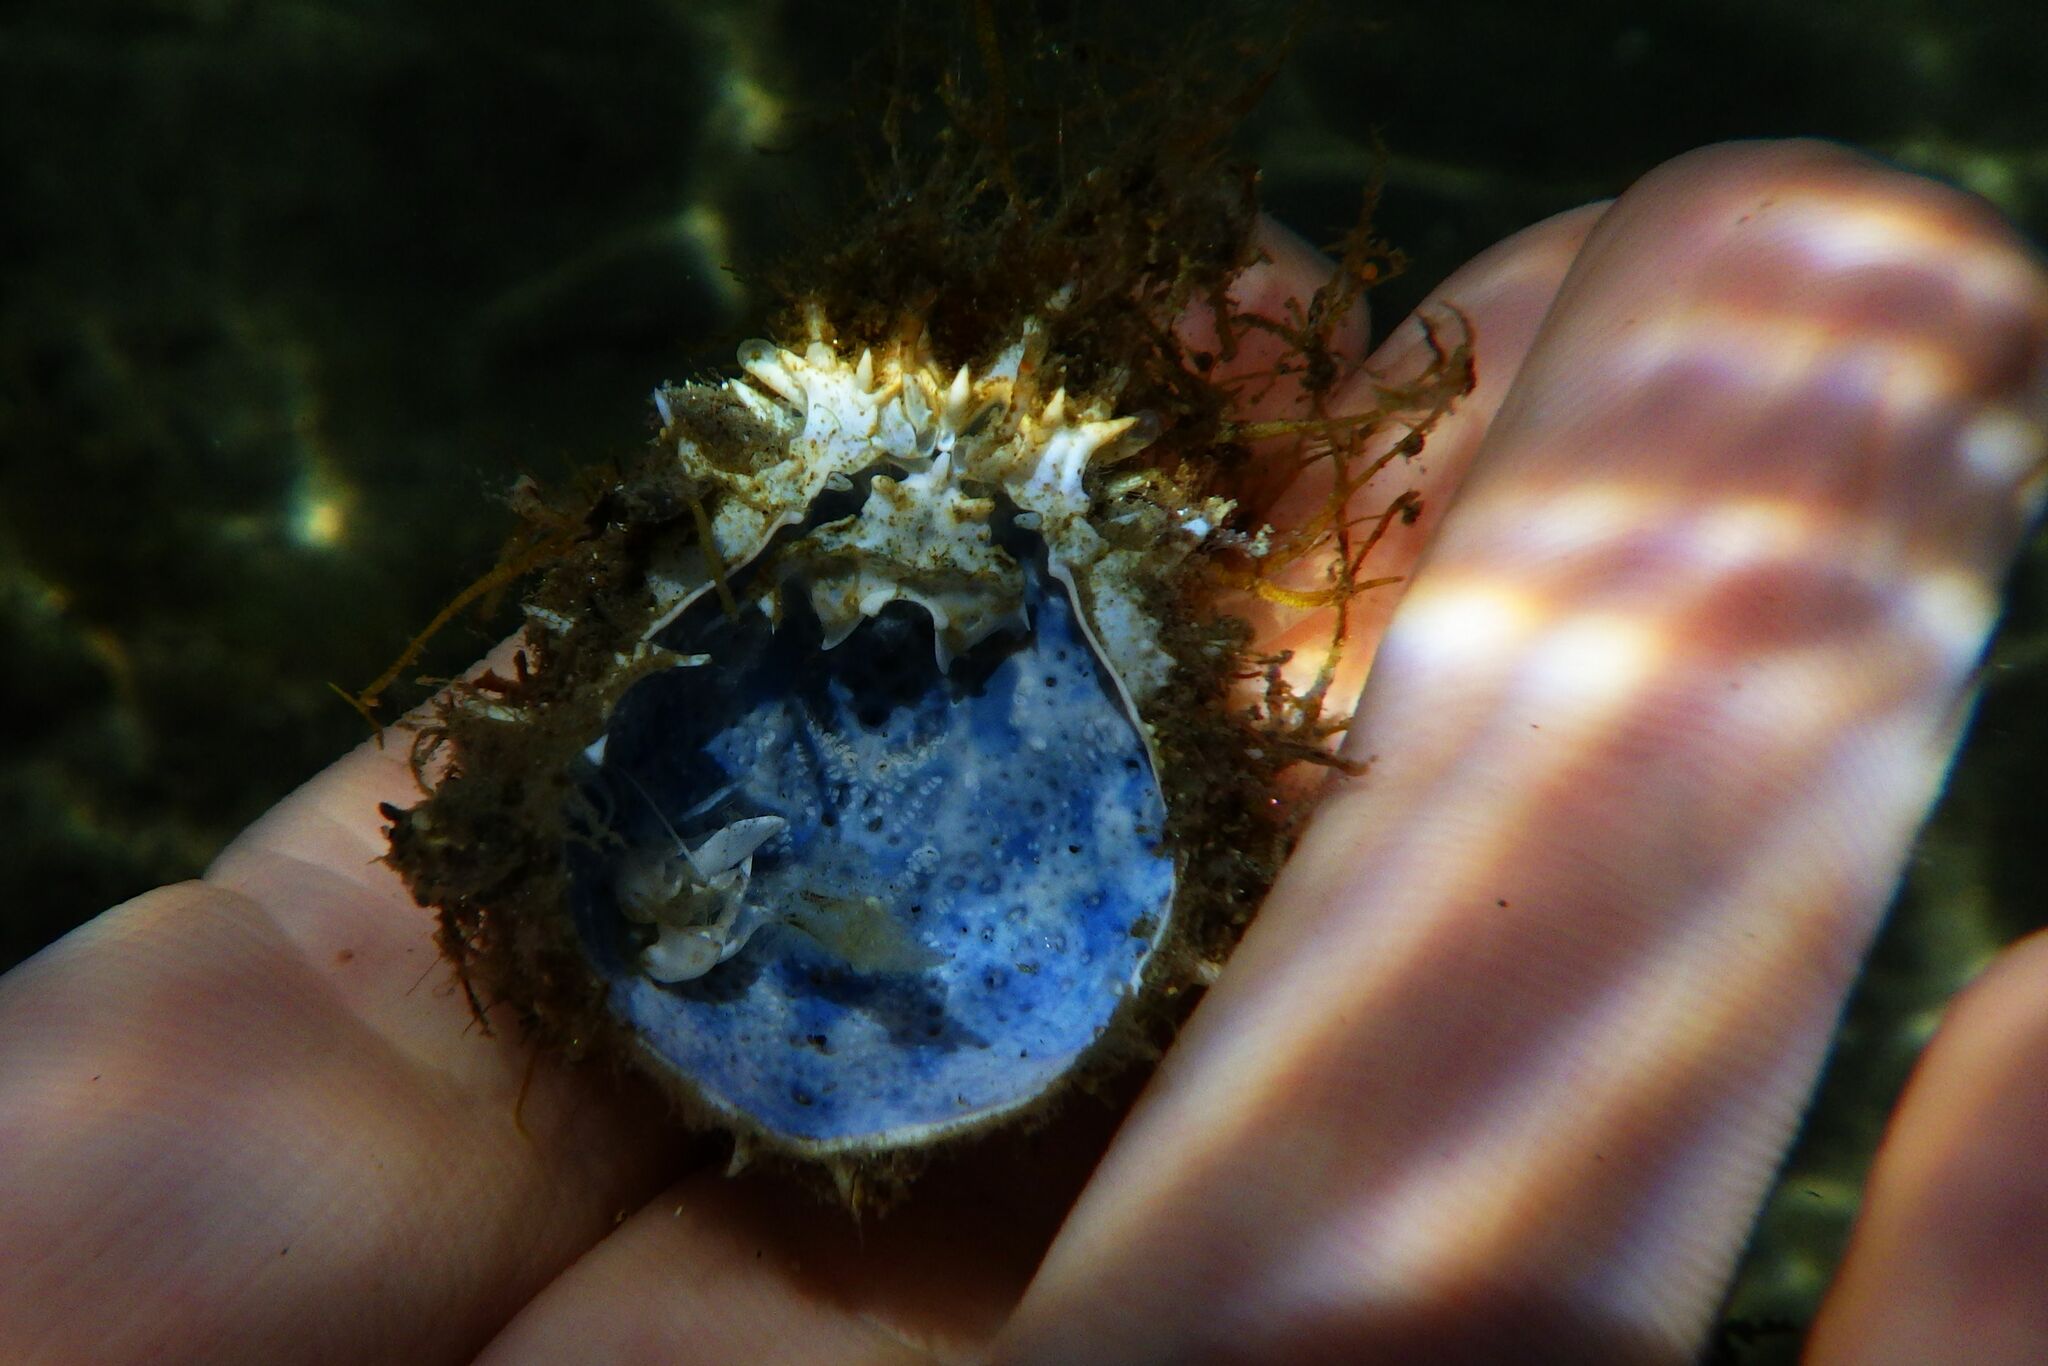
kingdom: Animalia
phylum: Arthropoda
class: Malacostraca
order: Decapoda
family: Majidae
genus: Maja
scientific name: Maja crispata
